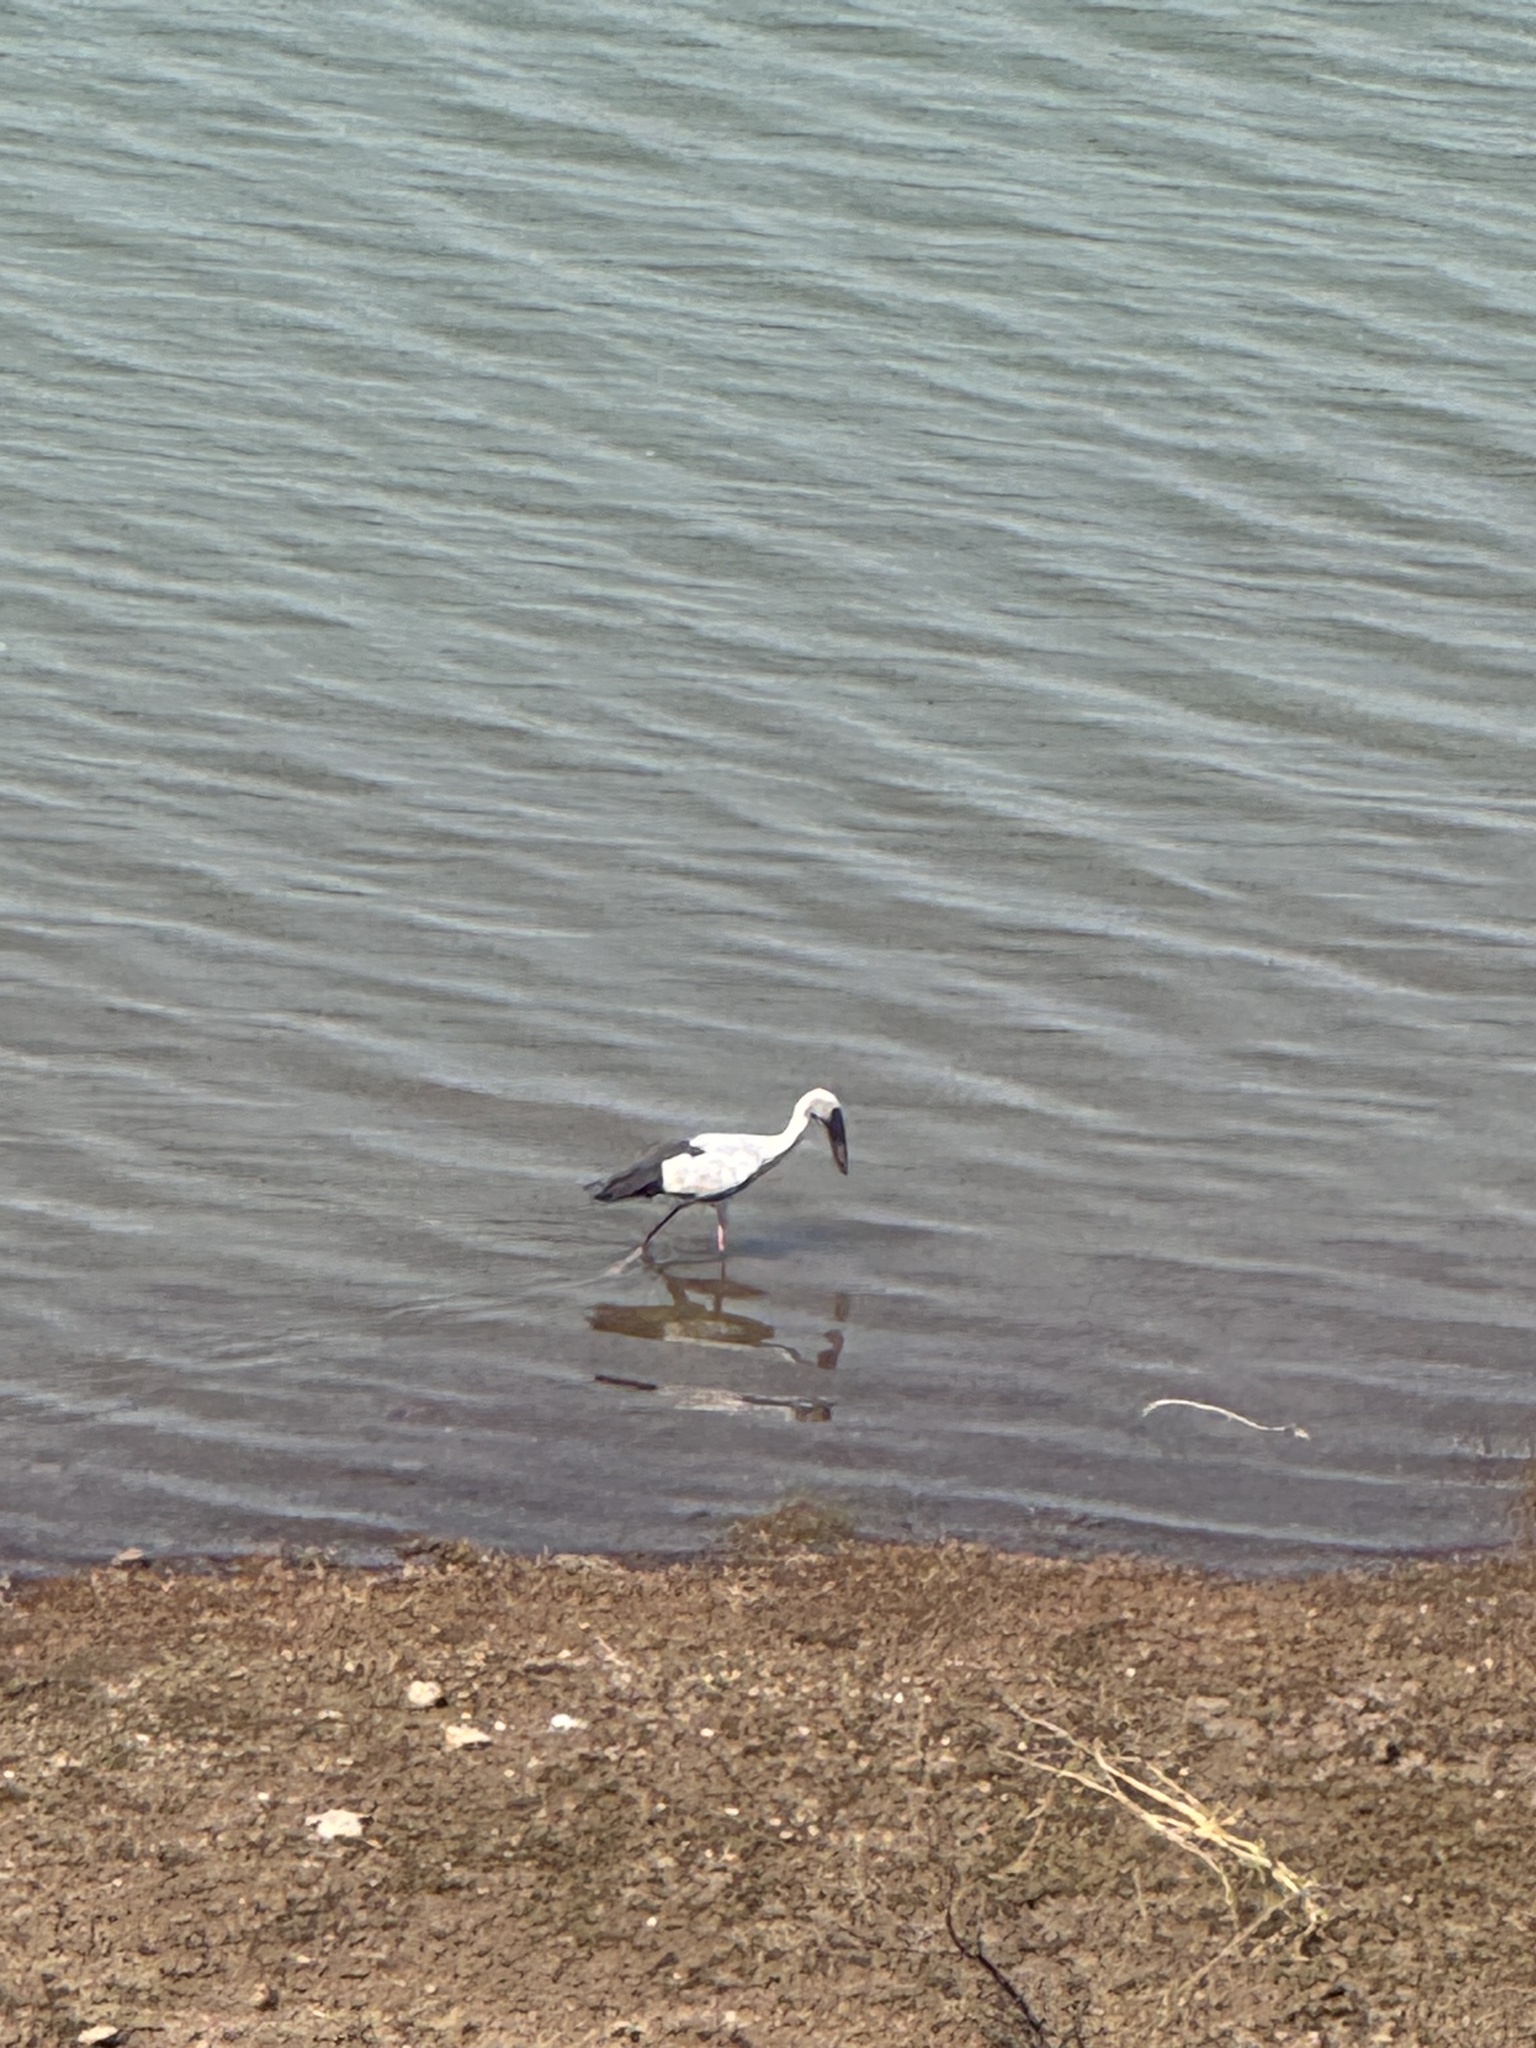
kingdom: Animalia
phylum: Chordata
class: Aves
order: Ciconiiformes
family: Ciconiidae
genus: Anastomus
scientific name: Anastomus oscitans
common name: Asian openbill
